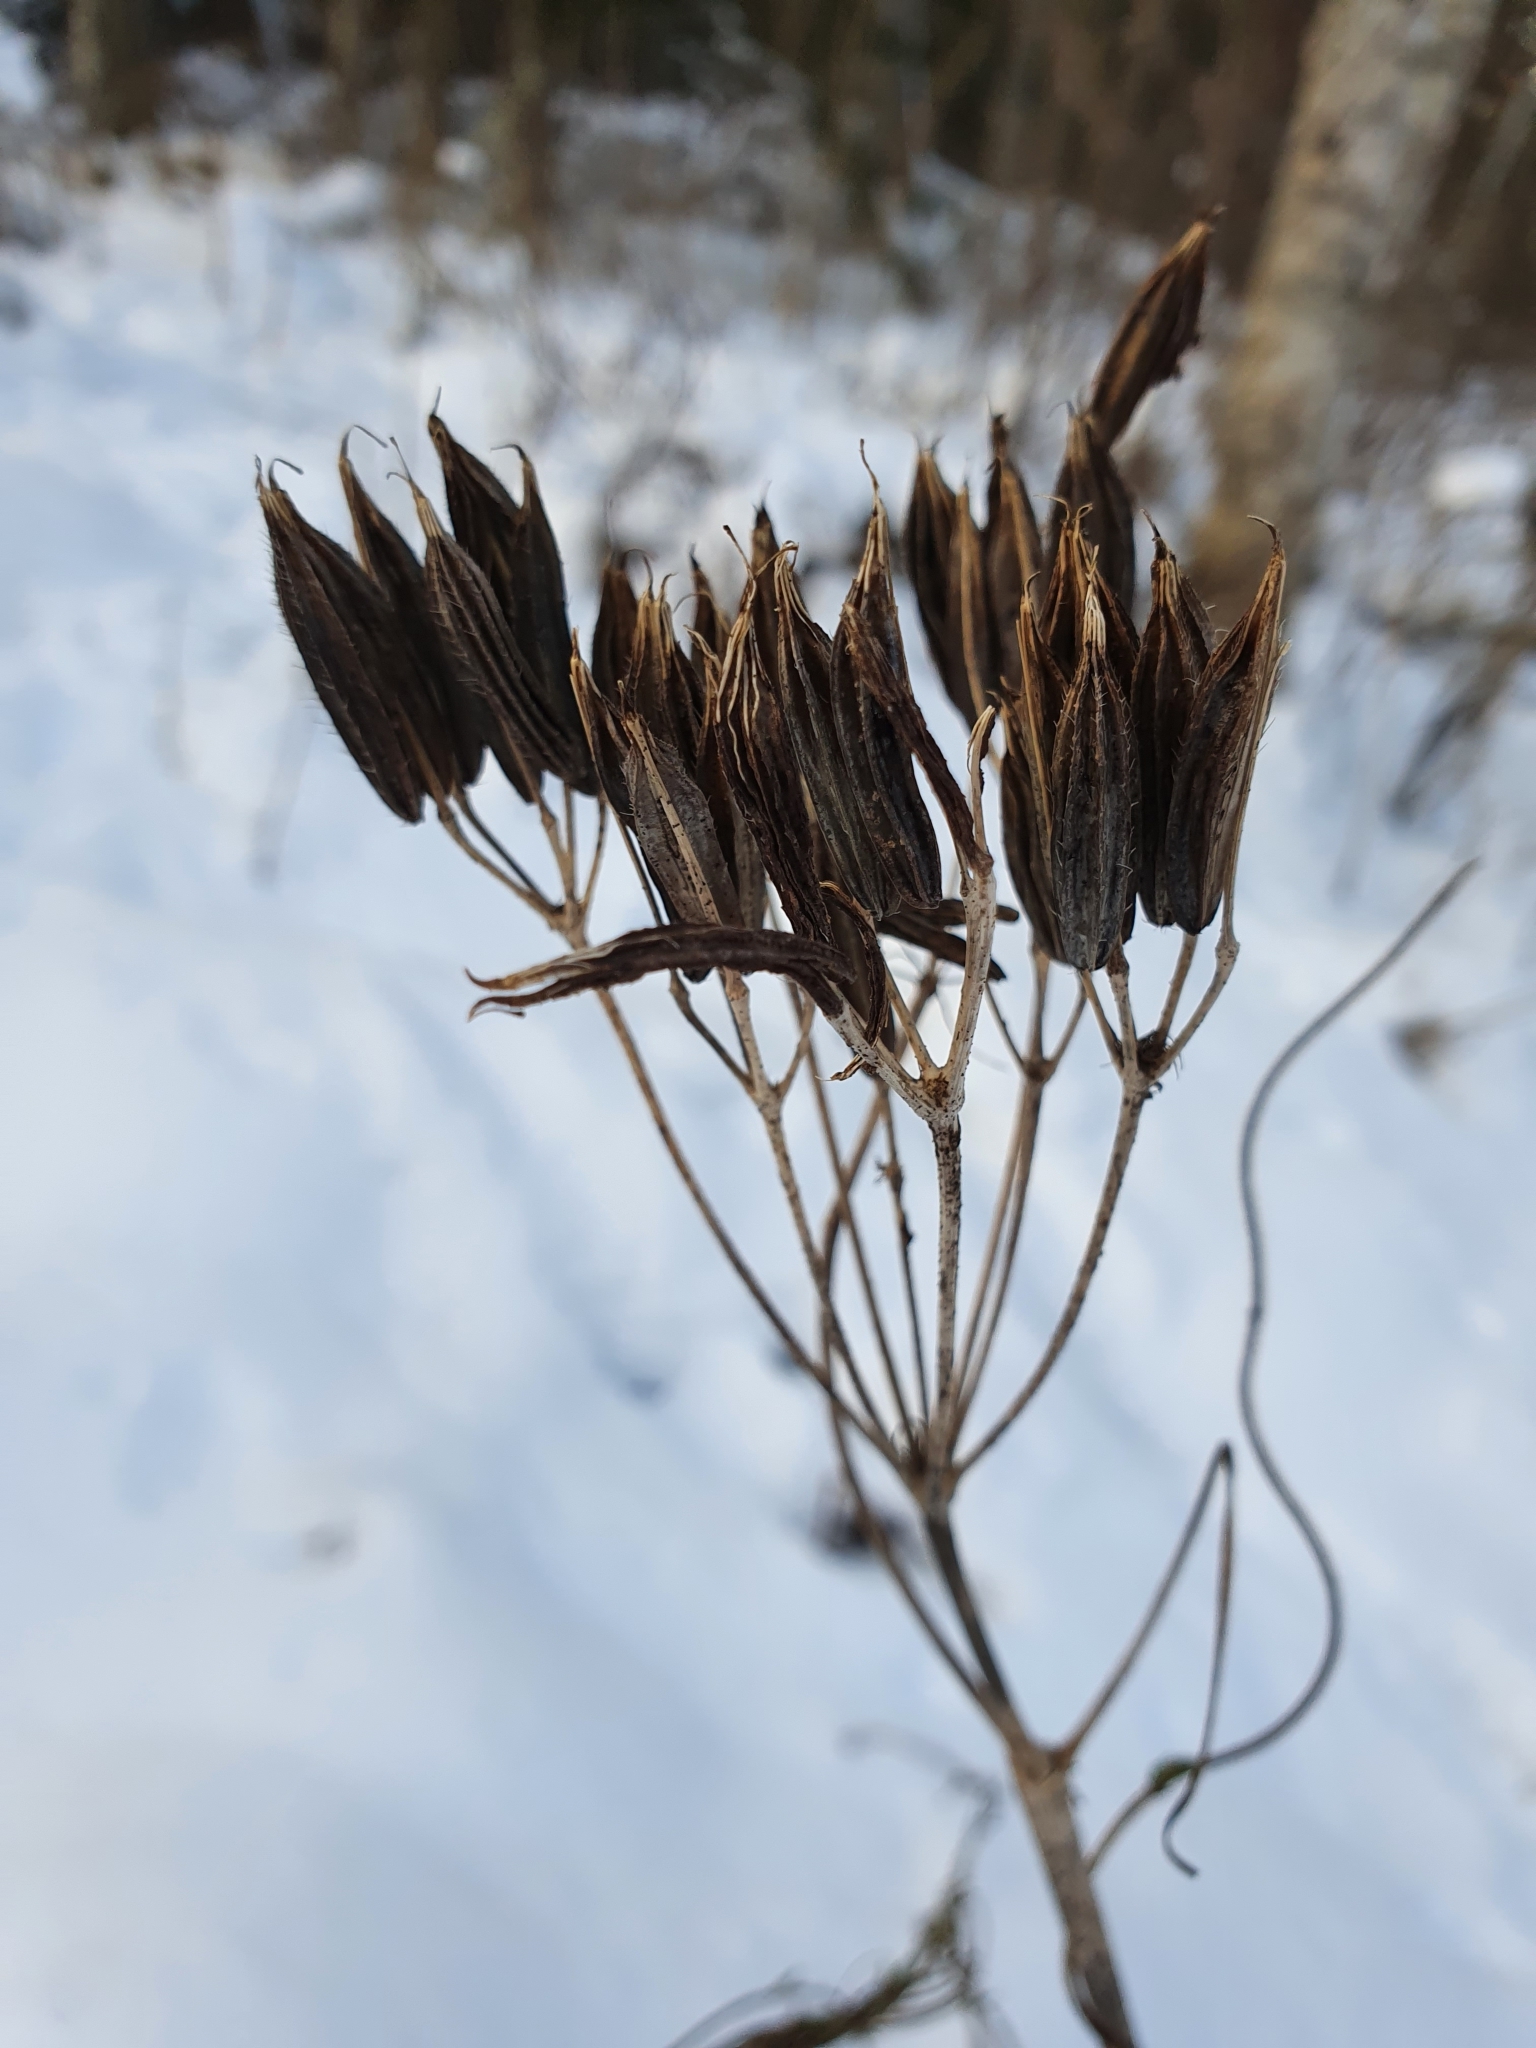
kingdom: Plantae
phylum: Tracheophyta
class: Magnoliopsida
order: Apiales
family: Apiaceae
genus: Myrrhis
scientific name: Myrrhis odorata
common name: Sweet cicely
